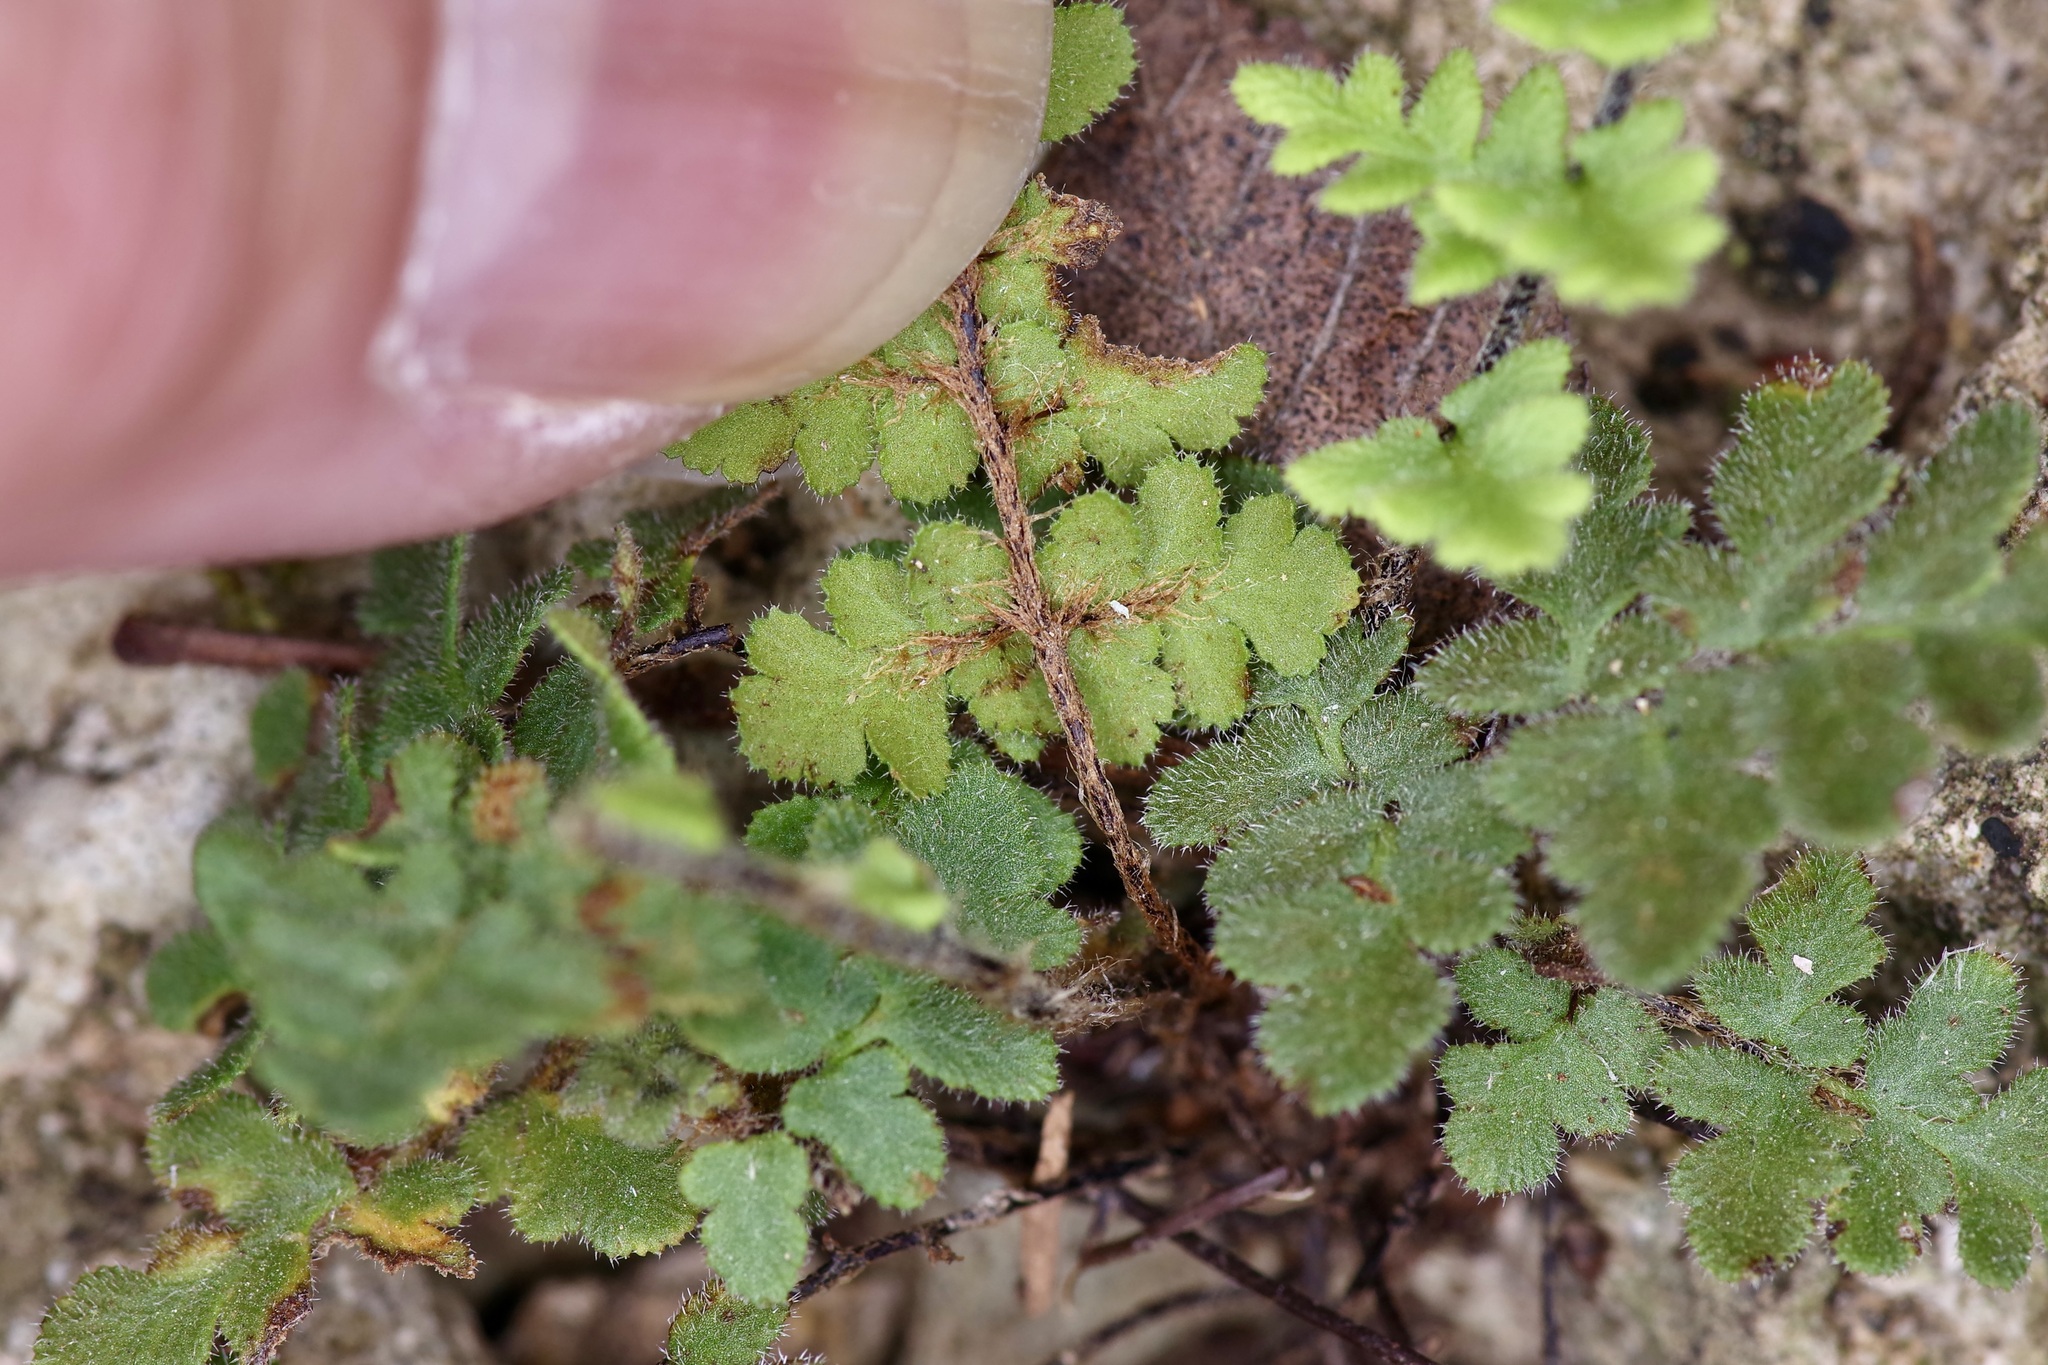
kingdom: Plantae
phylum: Tracheophyta
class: Polypodiopsida
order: Polypodiales
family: Pteridaceae
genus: Myriopteris
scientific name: Myriopteris scabra
